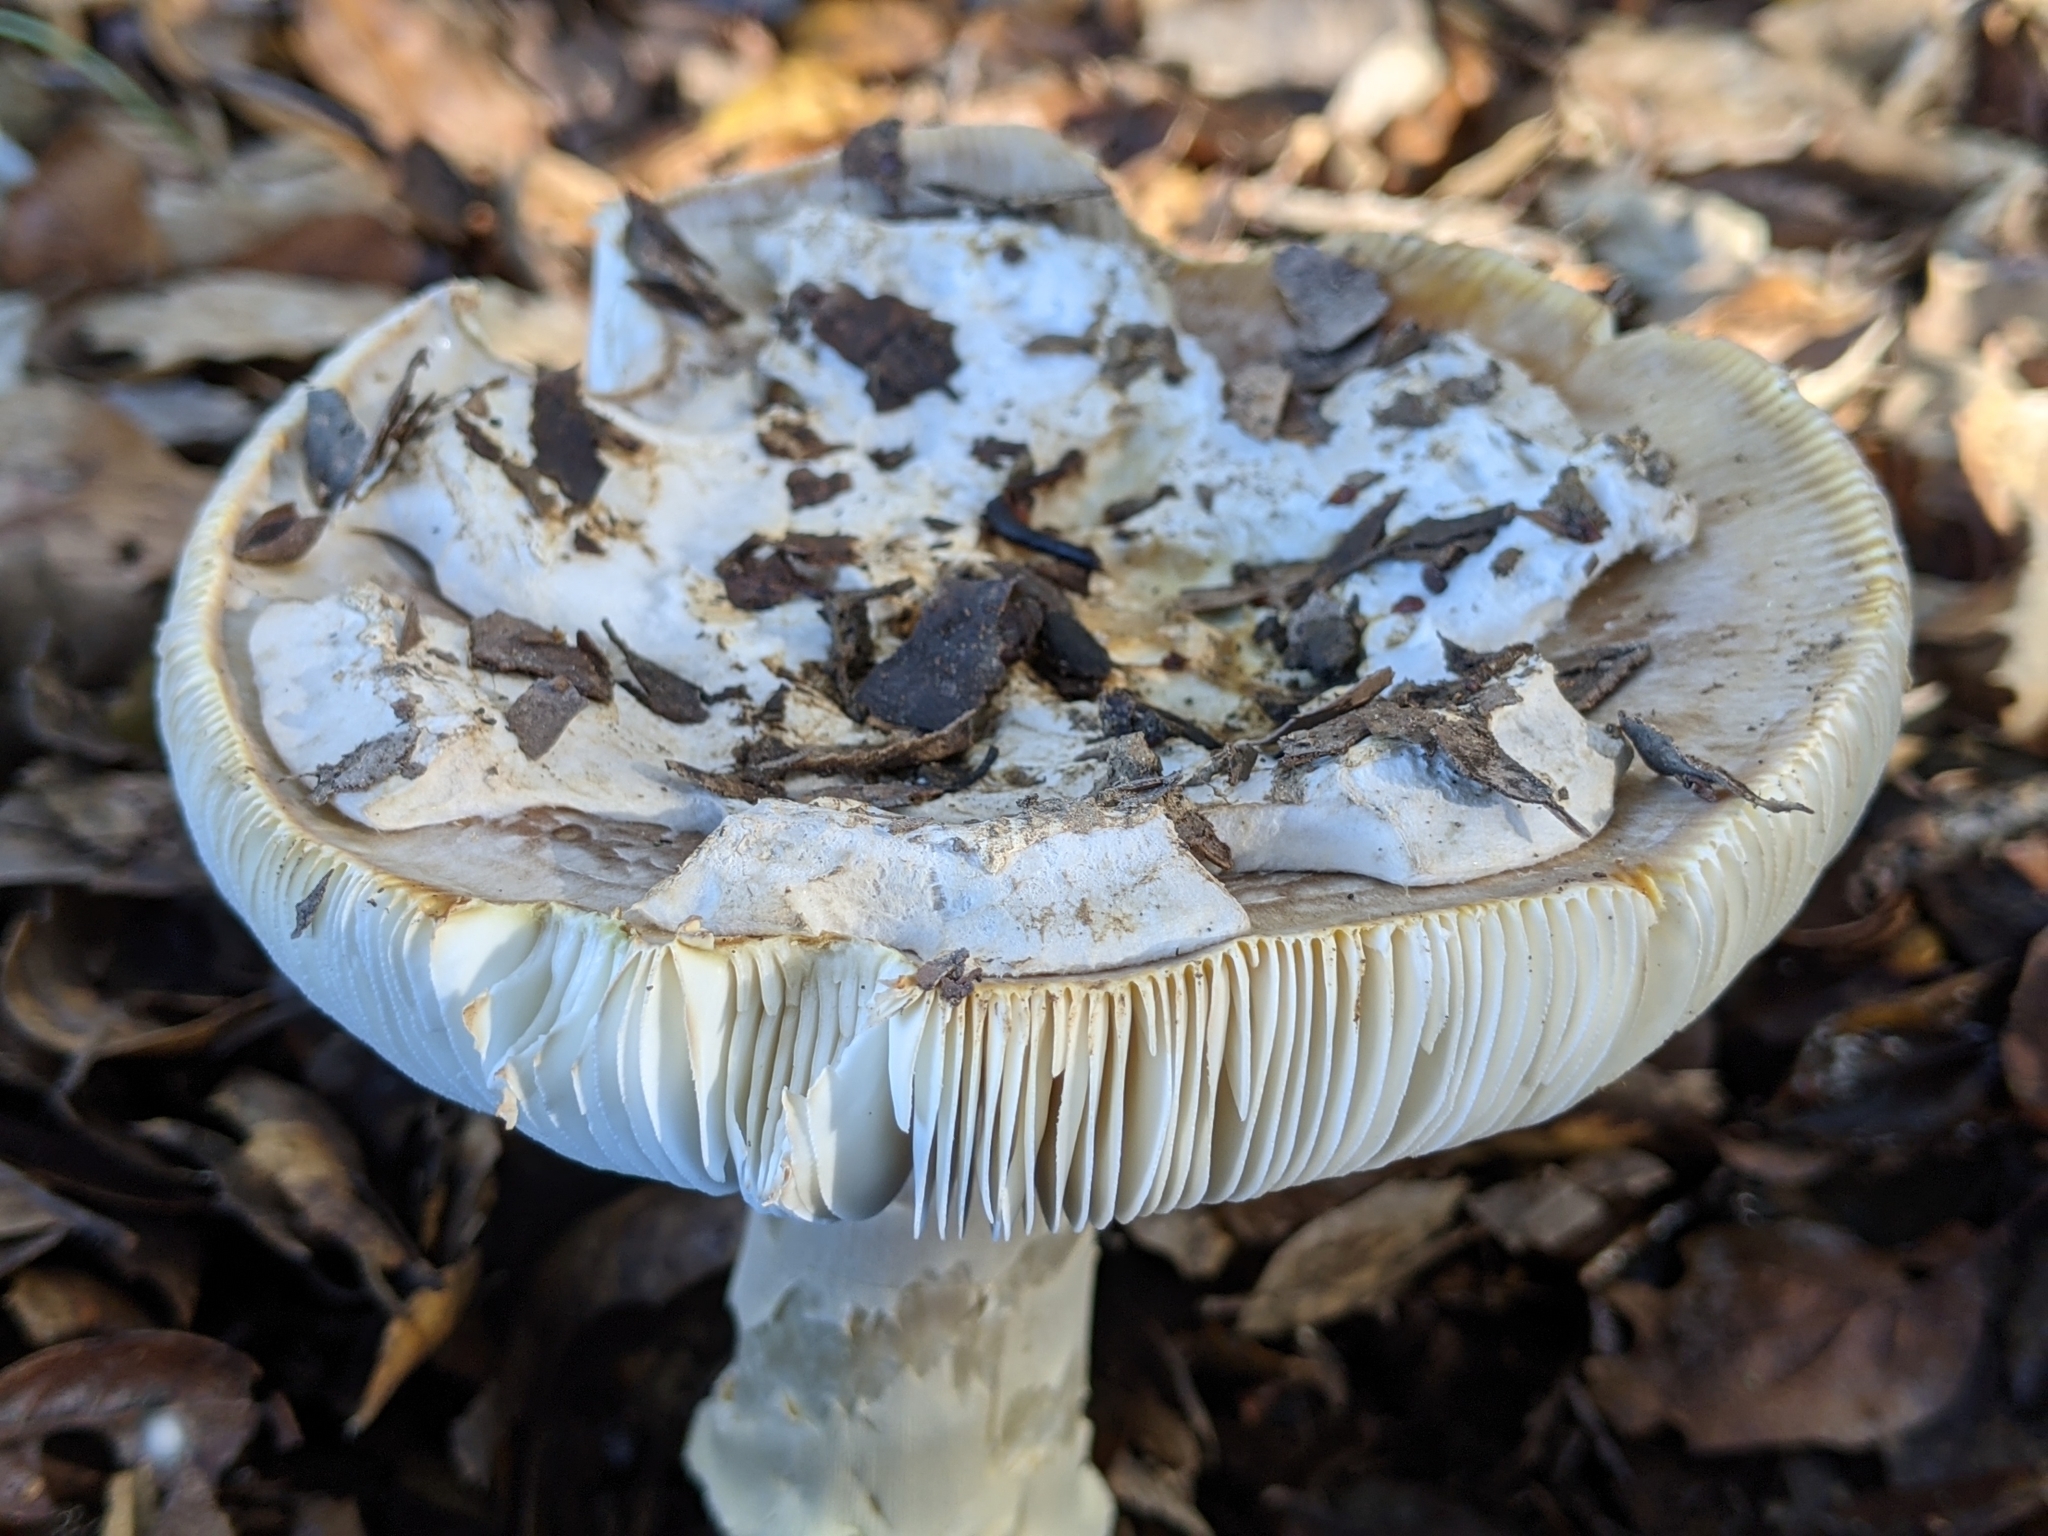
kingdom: Fungi
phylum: Basidiomycota
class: Agaricomycetes
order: Agaricales
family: Amanitaceae
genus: Amanita
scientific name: Amanita calyptroderma
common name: Coccora
